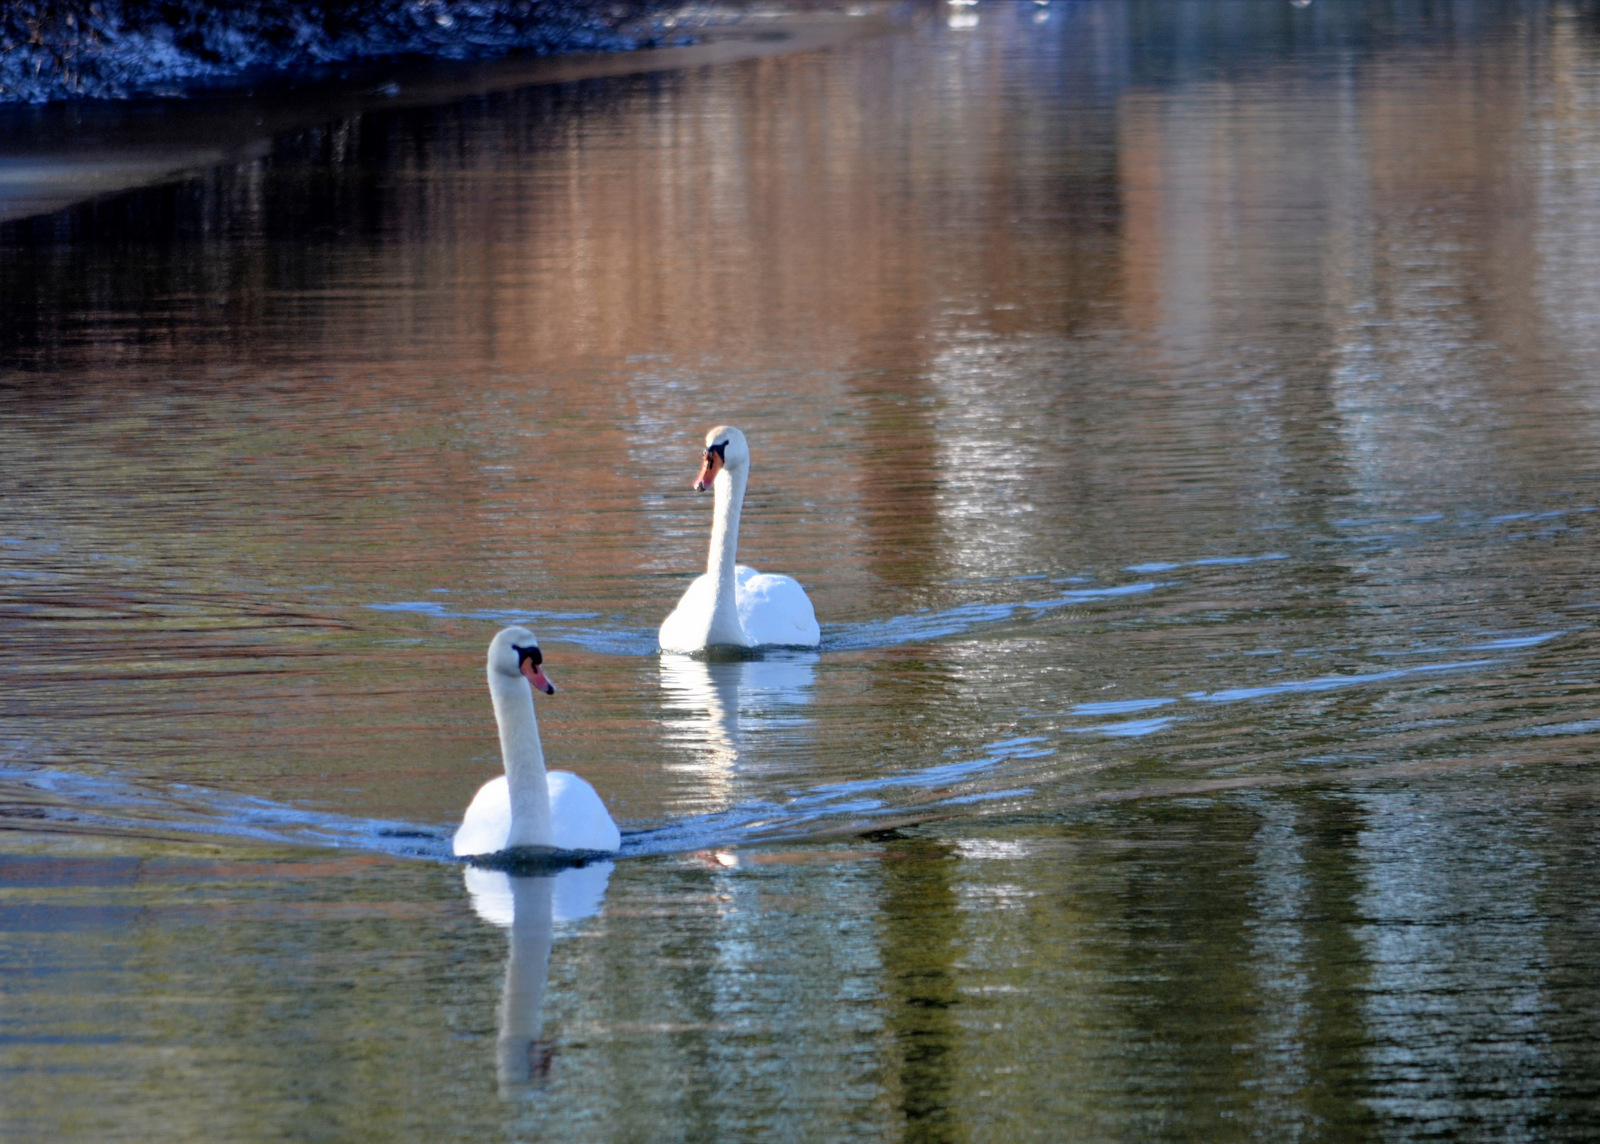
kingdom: Animalia
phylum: Chordata
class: Aves
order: Anseriformes
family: Anatidae
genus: Cygnus
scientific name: Cygnus olor
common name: Mute swan
